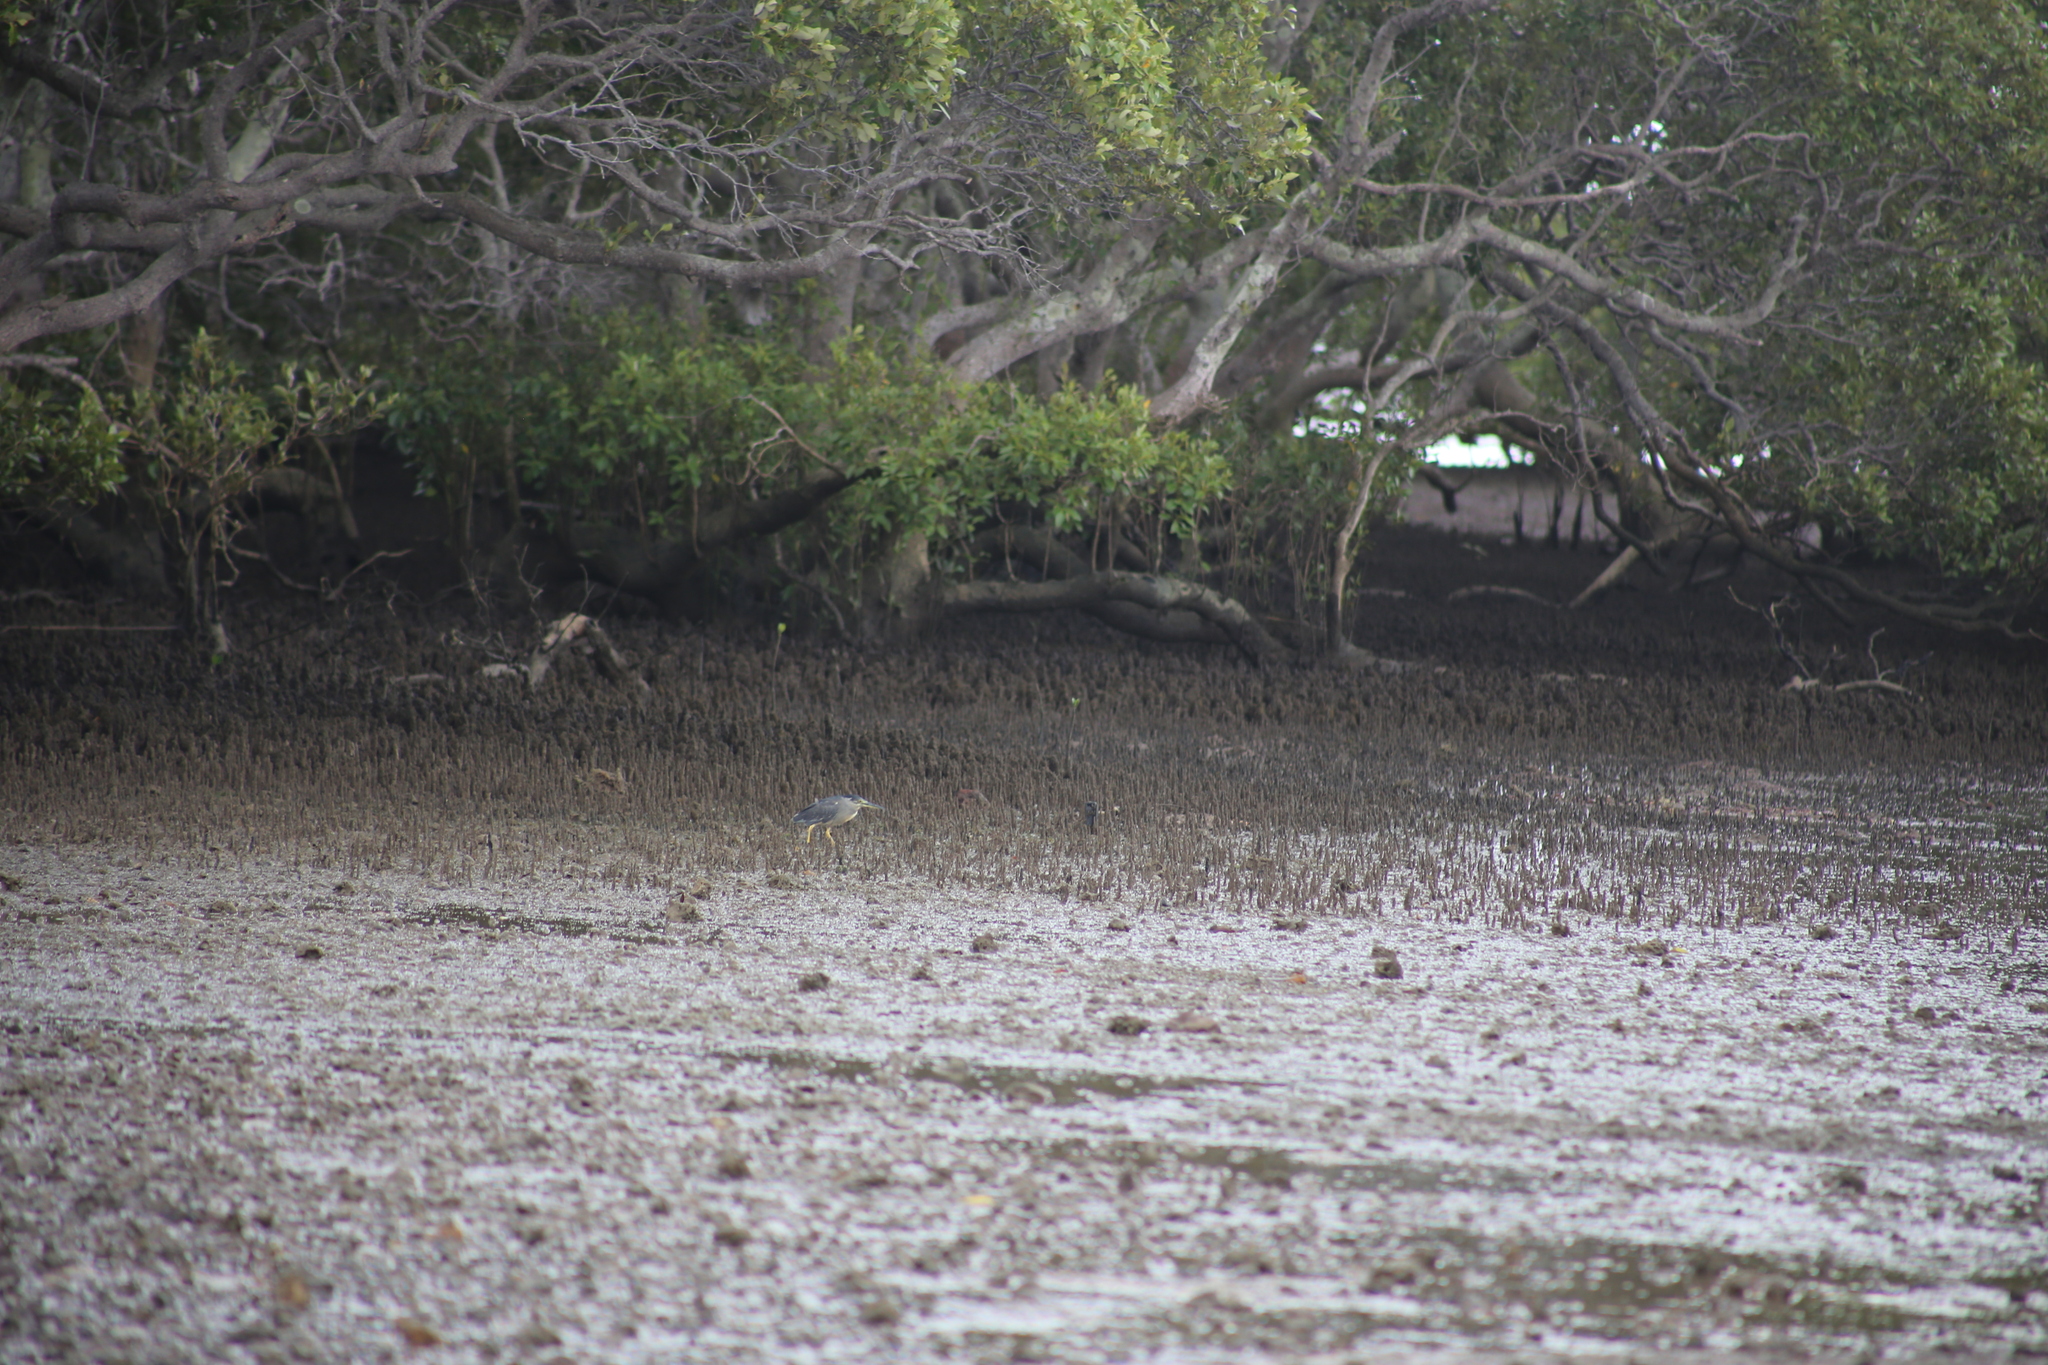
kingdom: Animalia
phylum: Chordata
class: Aves
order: Pelecaniformes
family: Ardeidae
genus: Butorides
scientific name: Butorides striata
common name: Striated heron
